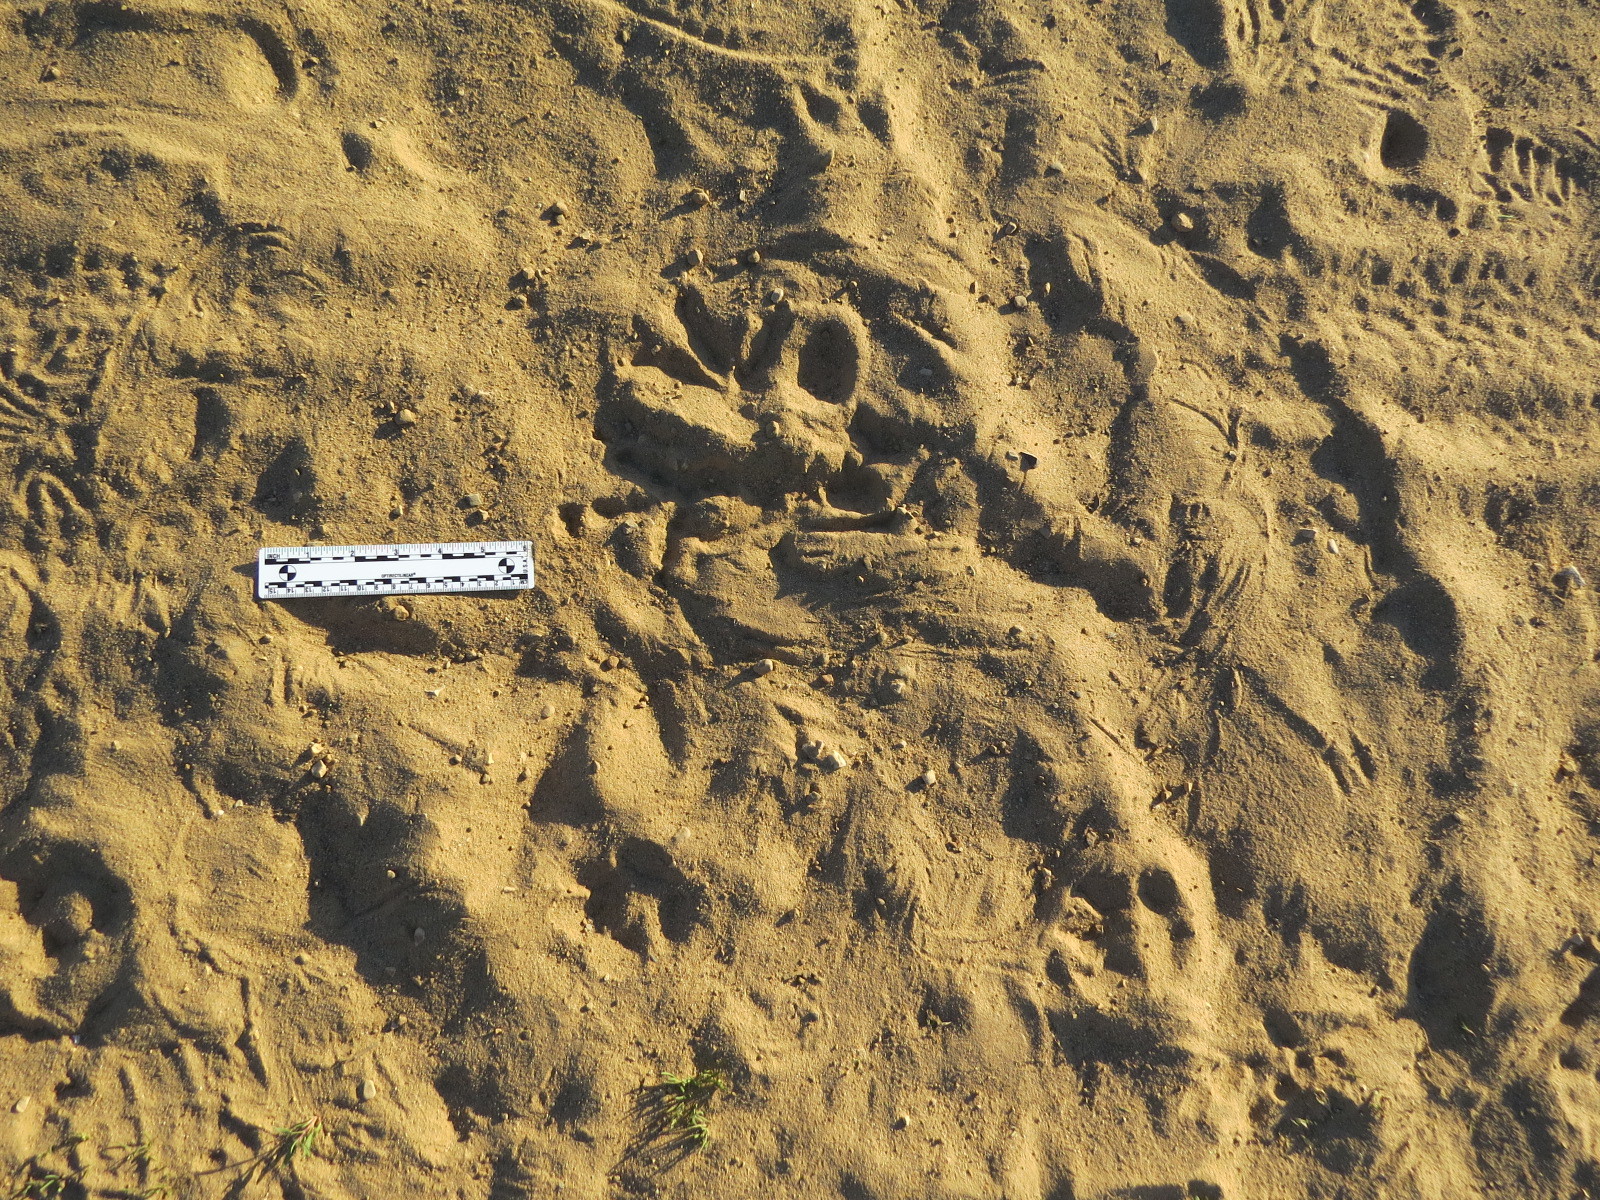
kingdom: Animalia
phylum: Chordata
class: Aves
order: Strigiformes
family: Strigidae
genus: Bubo
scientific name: Bubo virginianus
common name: Great horned owl
